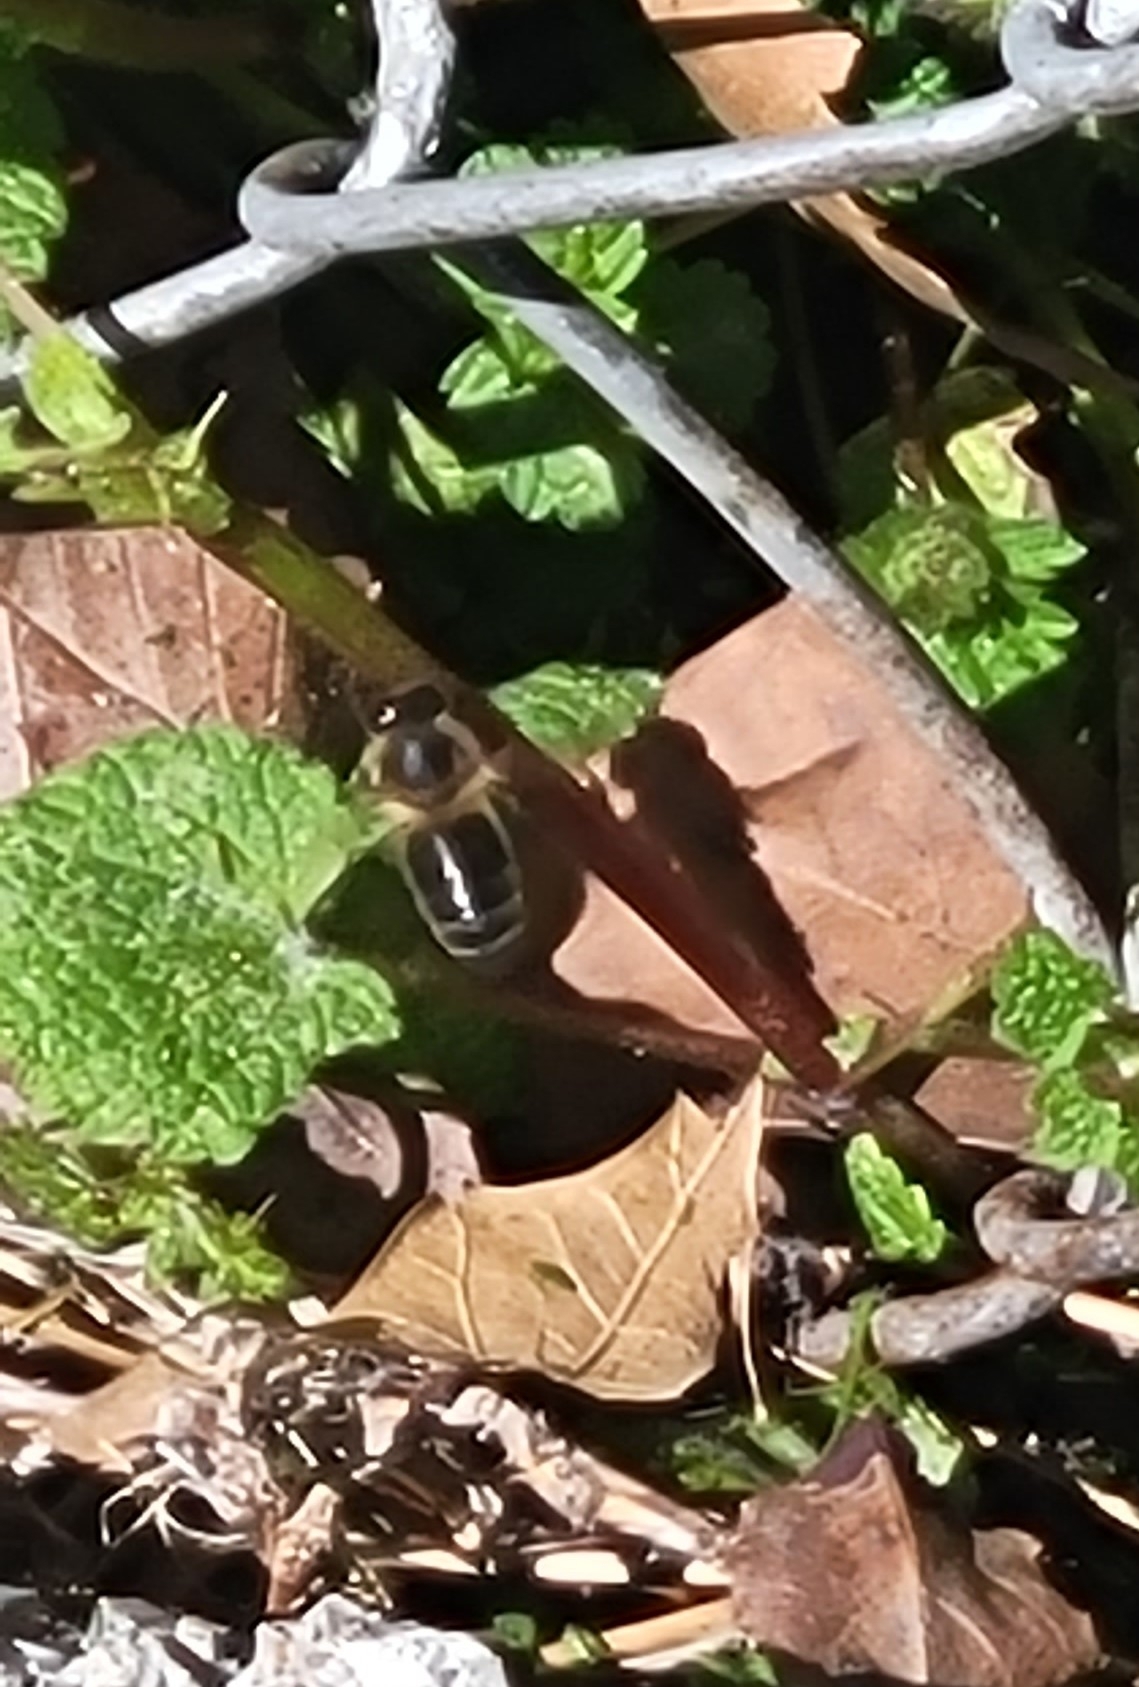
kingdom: Animalia
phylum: Arthropoda
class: Insecta
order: Hymenoptera
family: Apidae
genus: Apis
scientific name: Apis mellifera
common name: Honey bee
